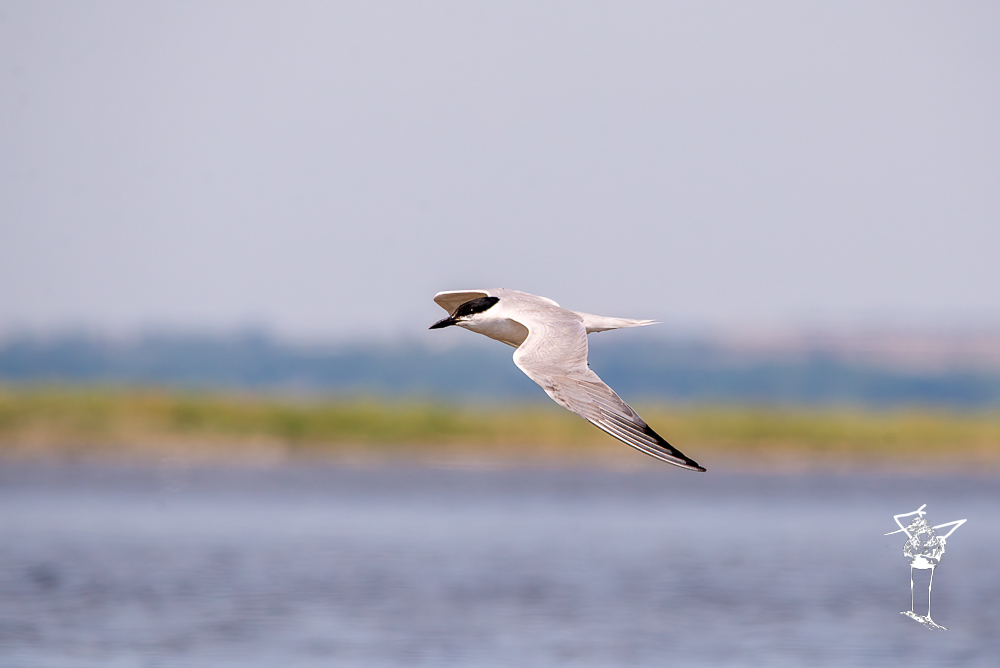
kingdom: Animalia
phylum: Chordata
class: Aves
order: Charadriiformes
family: Laridae
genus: Gelochelidon
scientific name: Gelochelidon nilotica
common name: Gull-billed tern
